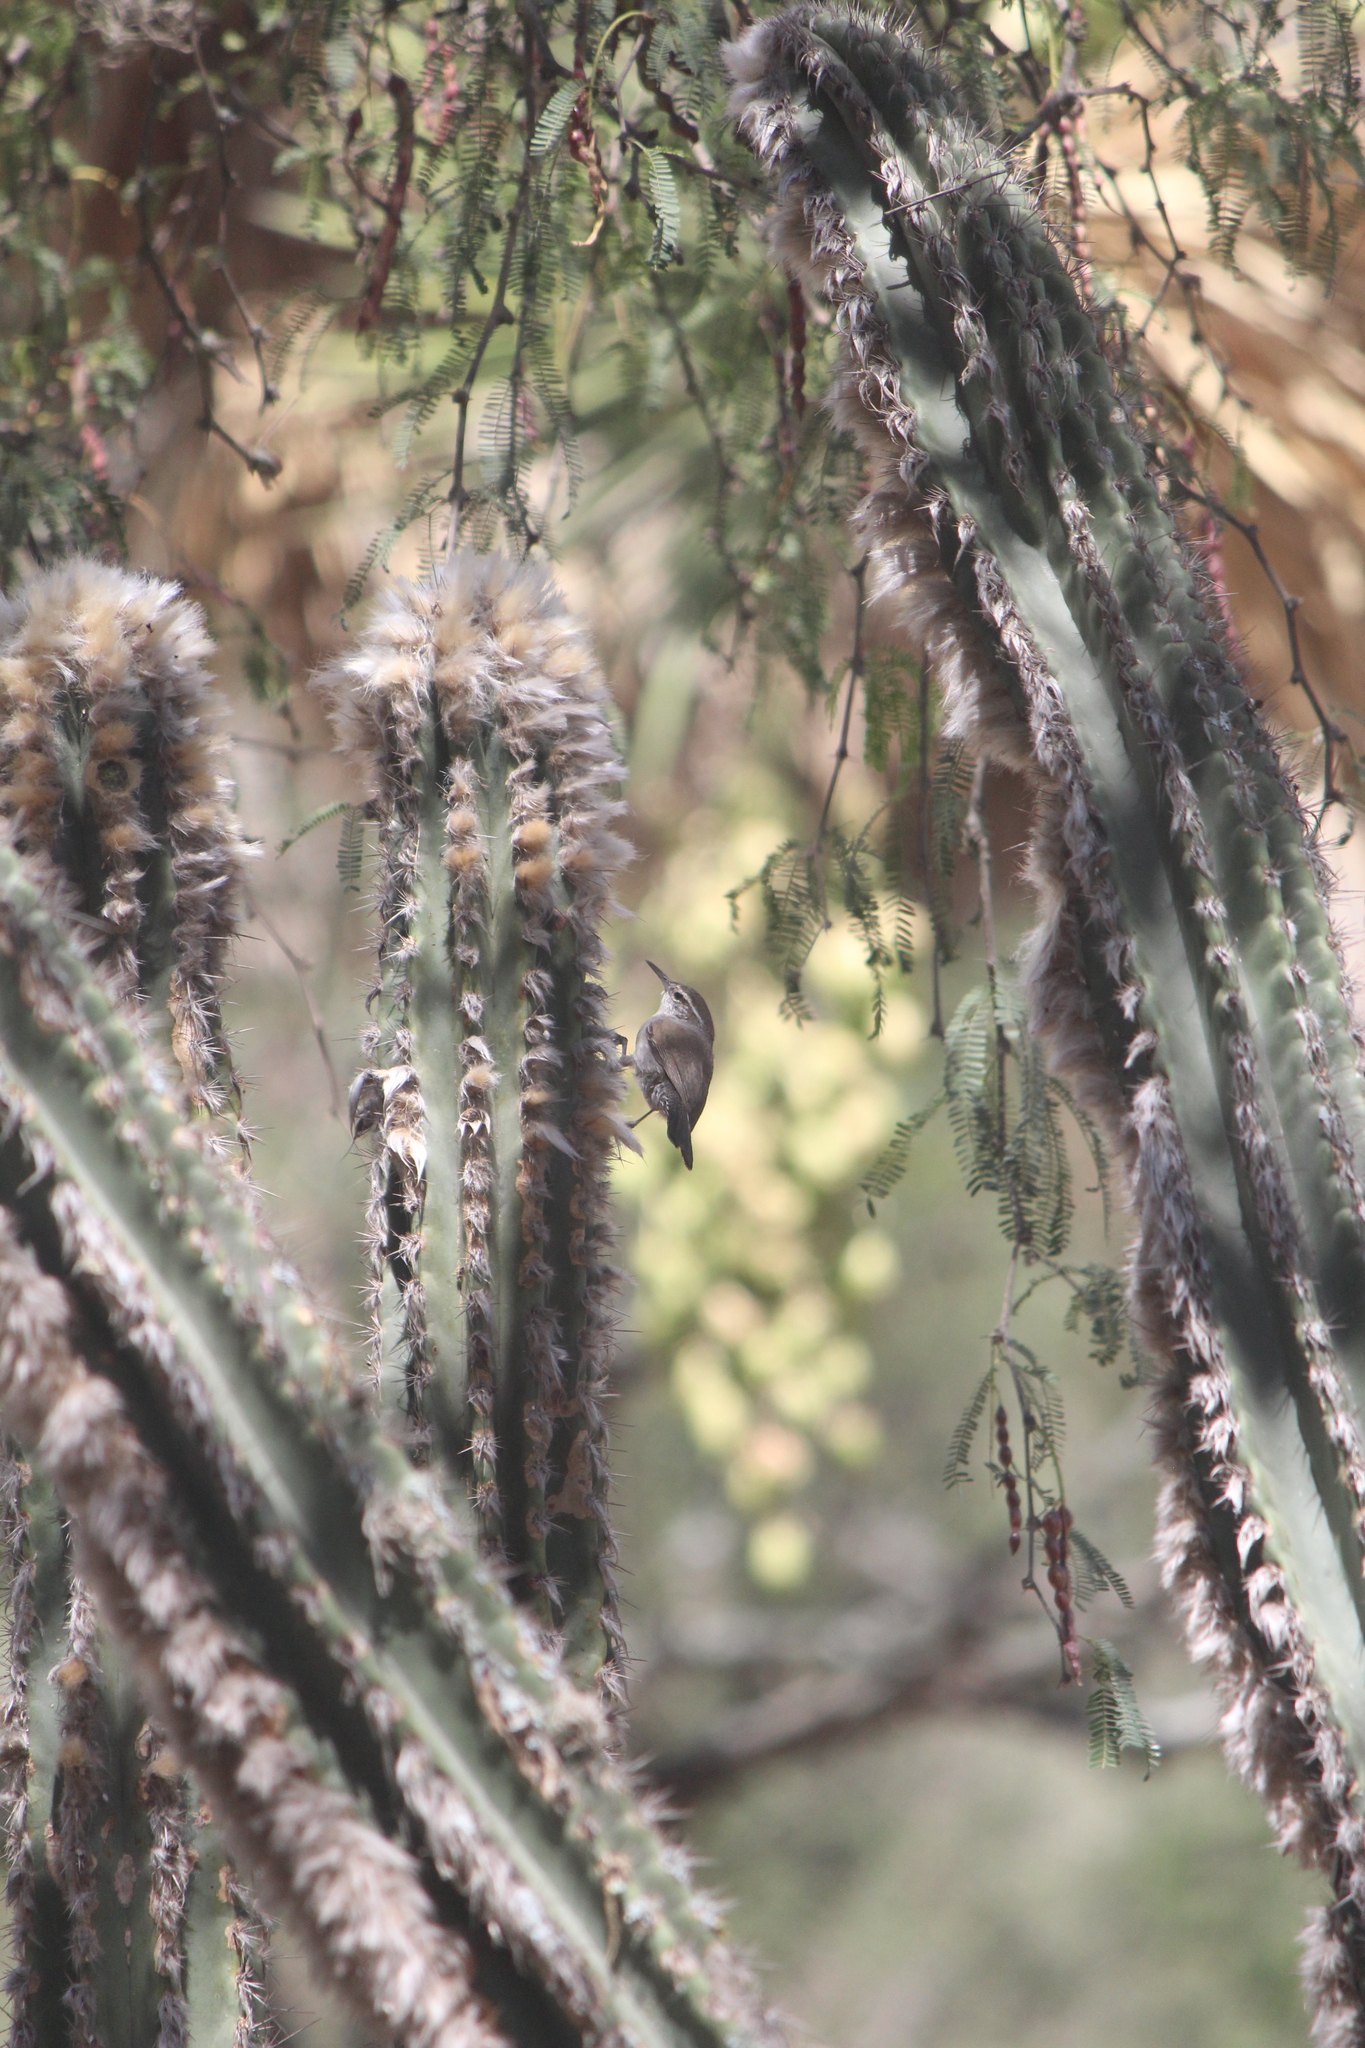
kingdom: Animalia
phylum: Chordata
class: Aves
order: Passeriformes
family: Troglodytidae
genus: Thryomanes
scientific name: Thryomanes bewickii
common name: Bewick's wren
